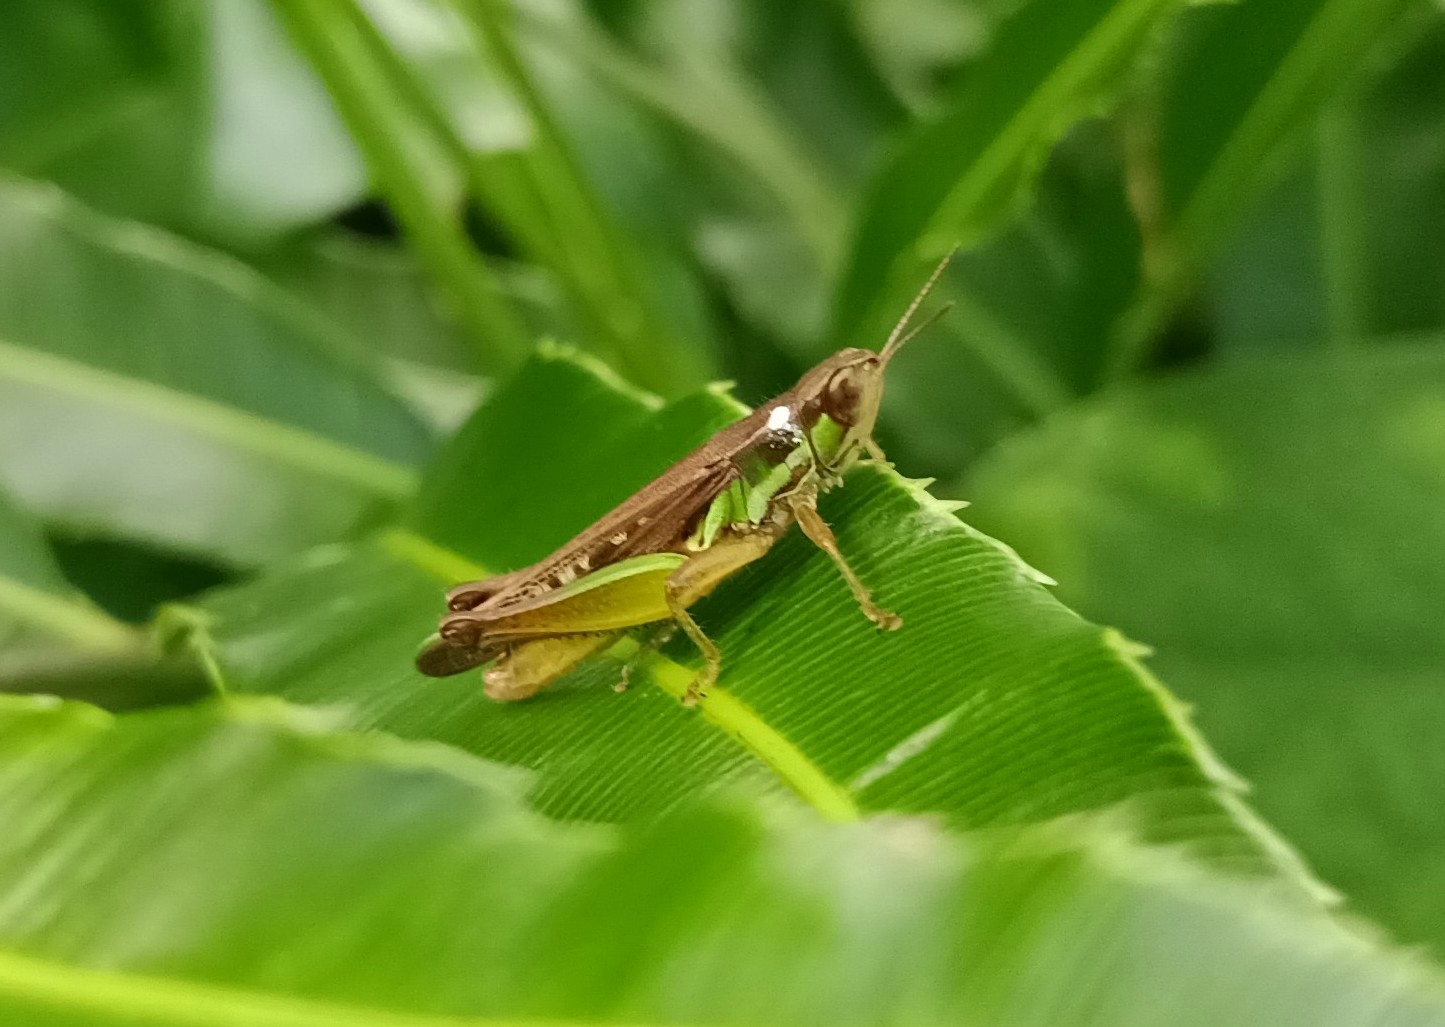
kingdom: Animalia
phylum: Arthropoda
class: Insecta
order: Orthoptera
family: Acrididae
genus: Spathosternum
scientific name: Spathosternum prasiniferum
